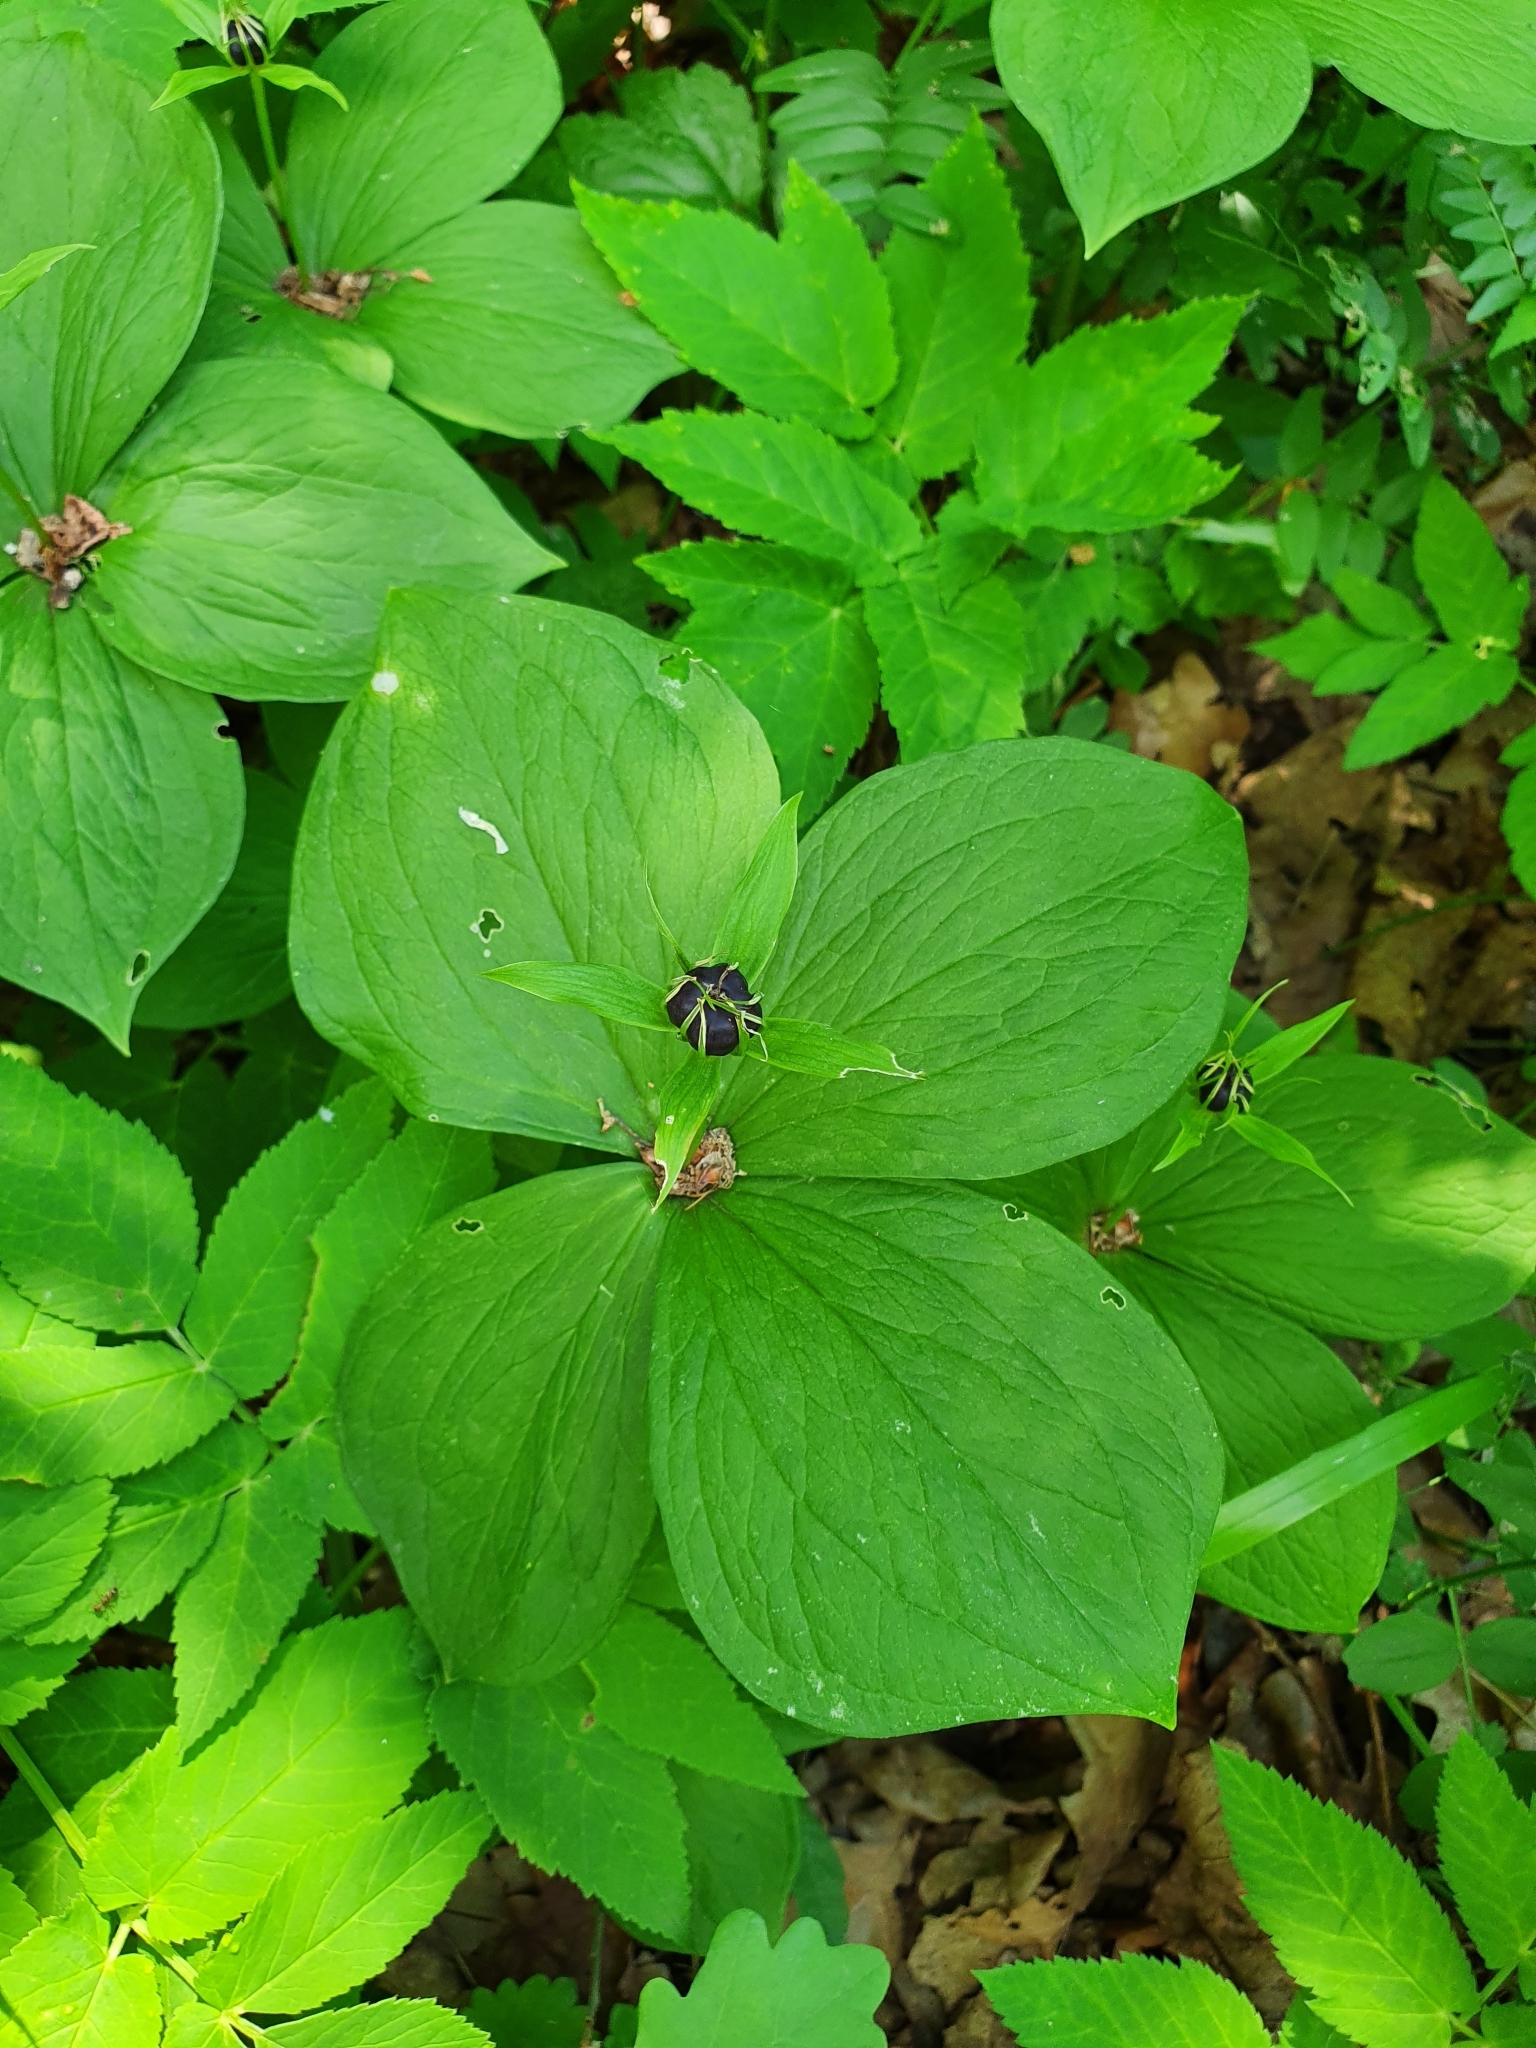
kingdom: Plantae
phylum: Tracheophyta
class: Liliopsida
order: Liliales
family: Melanthiaceae
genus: Paris
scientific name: Paris quadrifolia
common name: Herb-paris
